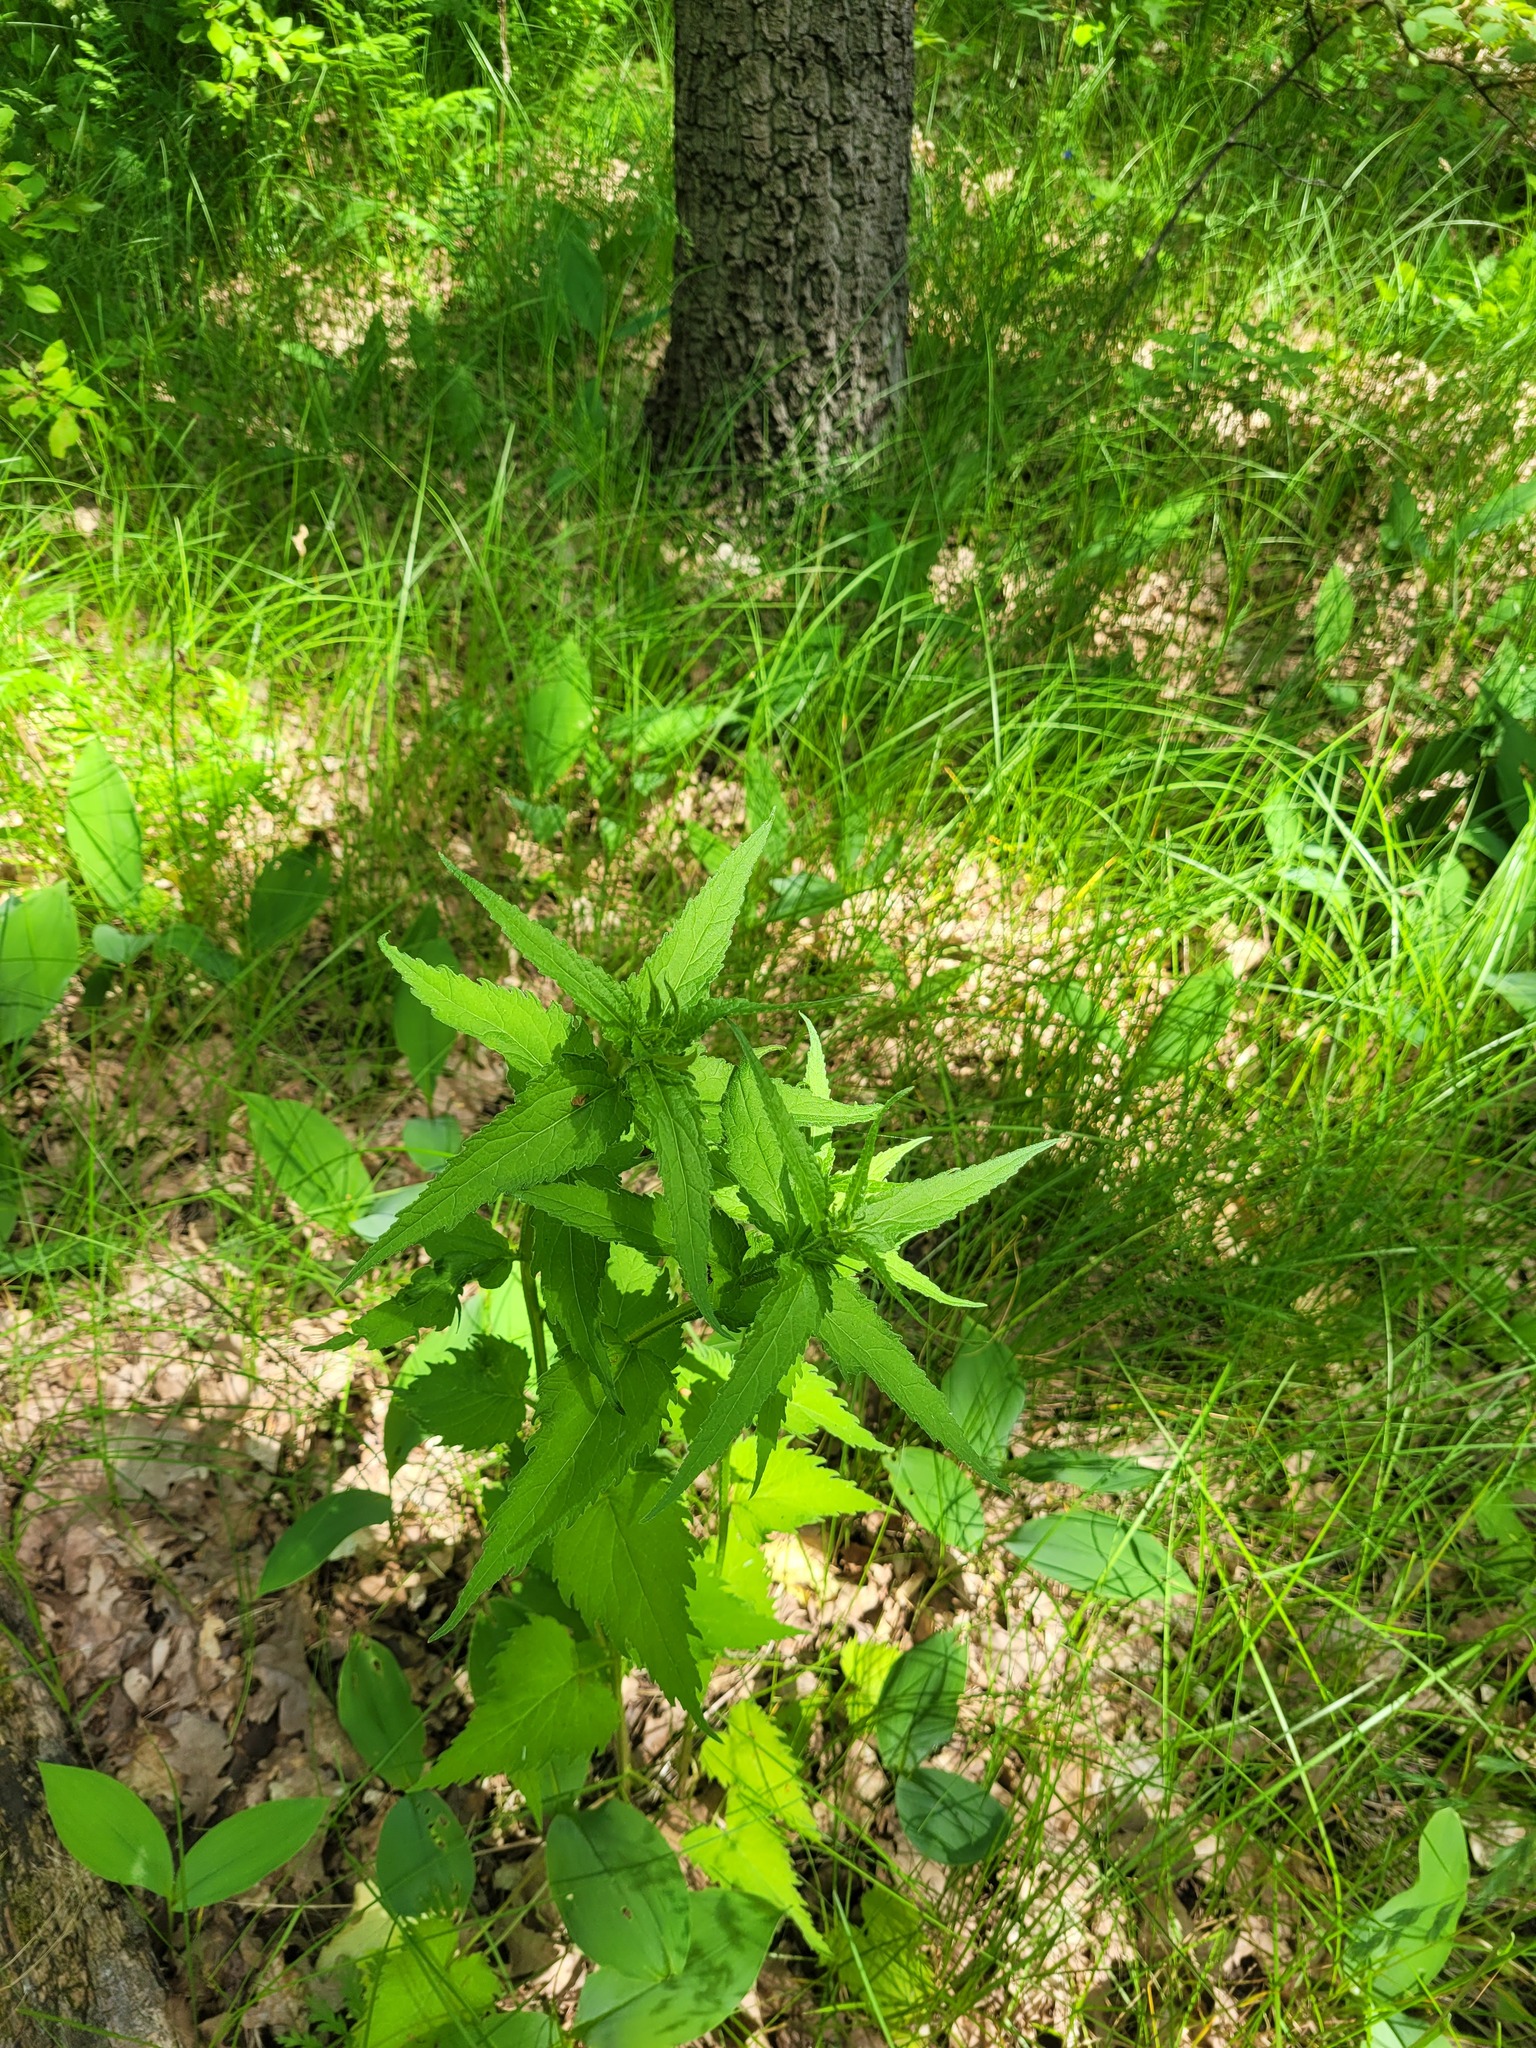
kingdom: Plantae
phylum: Tracheophyta
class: Magnoliopsida
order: Asterales
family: Campanulaceae
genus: Campanula
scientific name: Campanula trachelium
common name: Nettle-leaved bellflower
